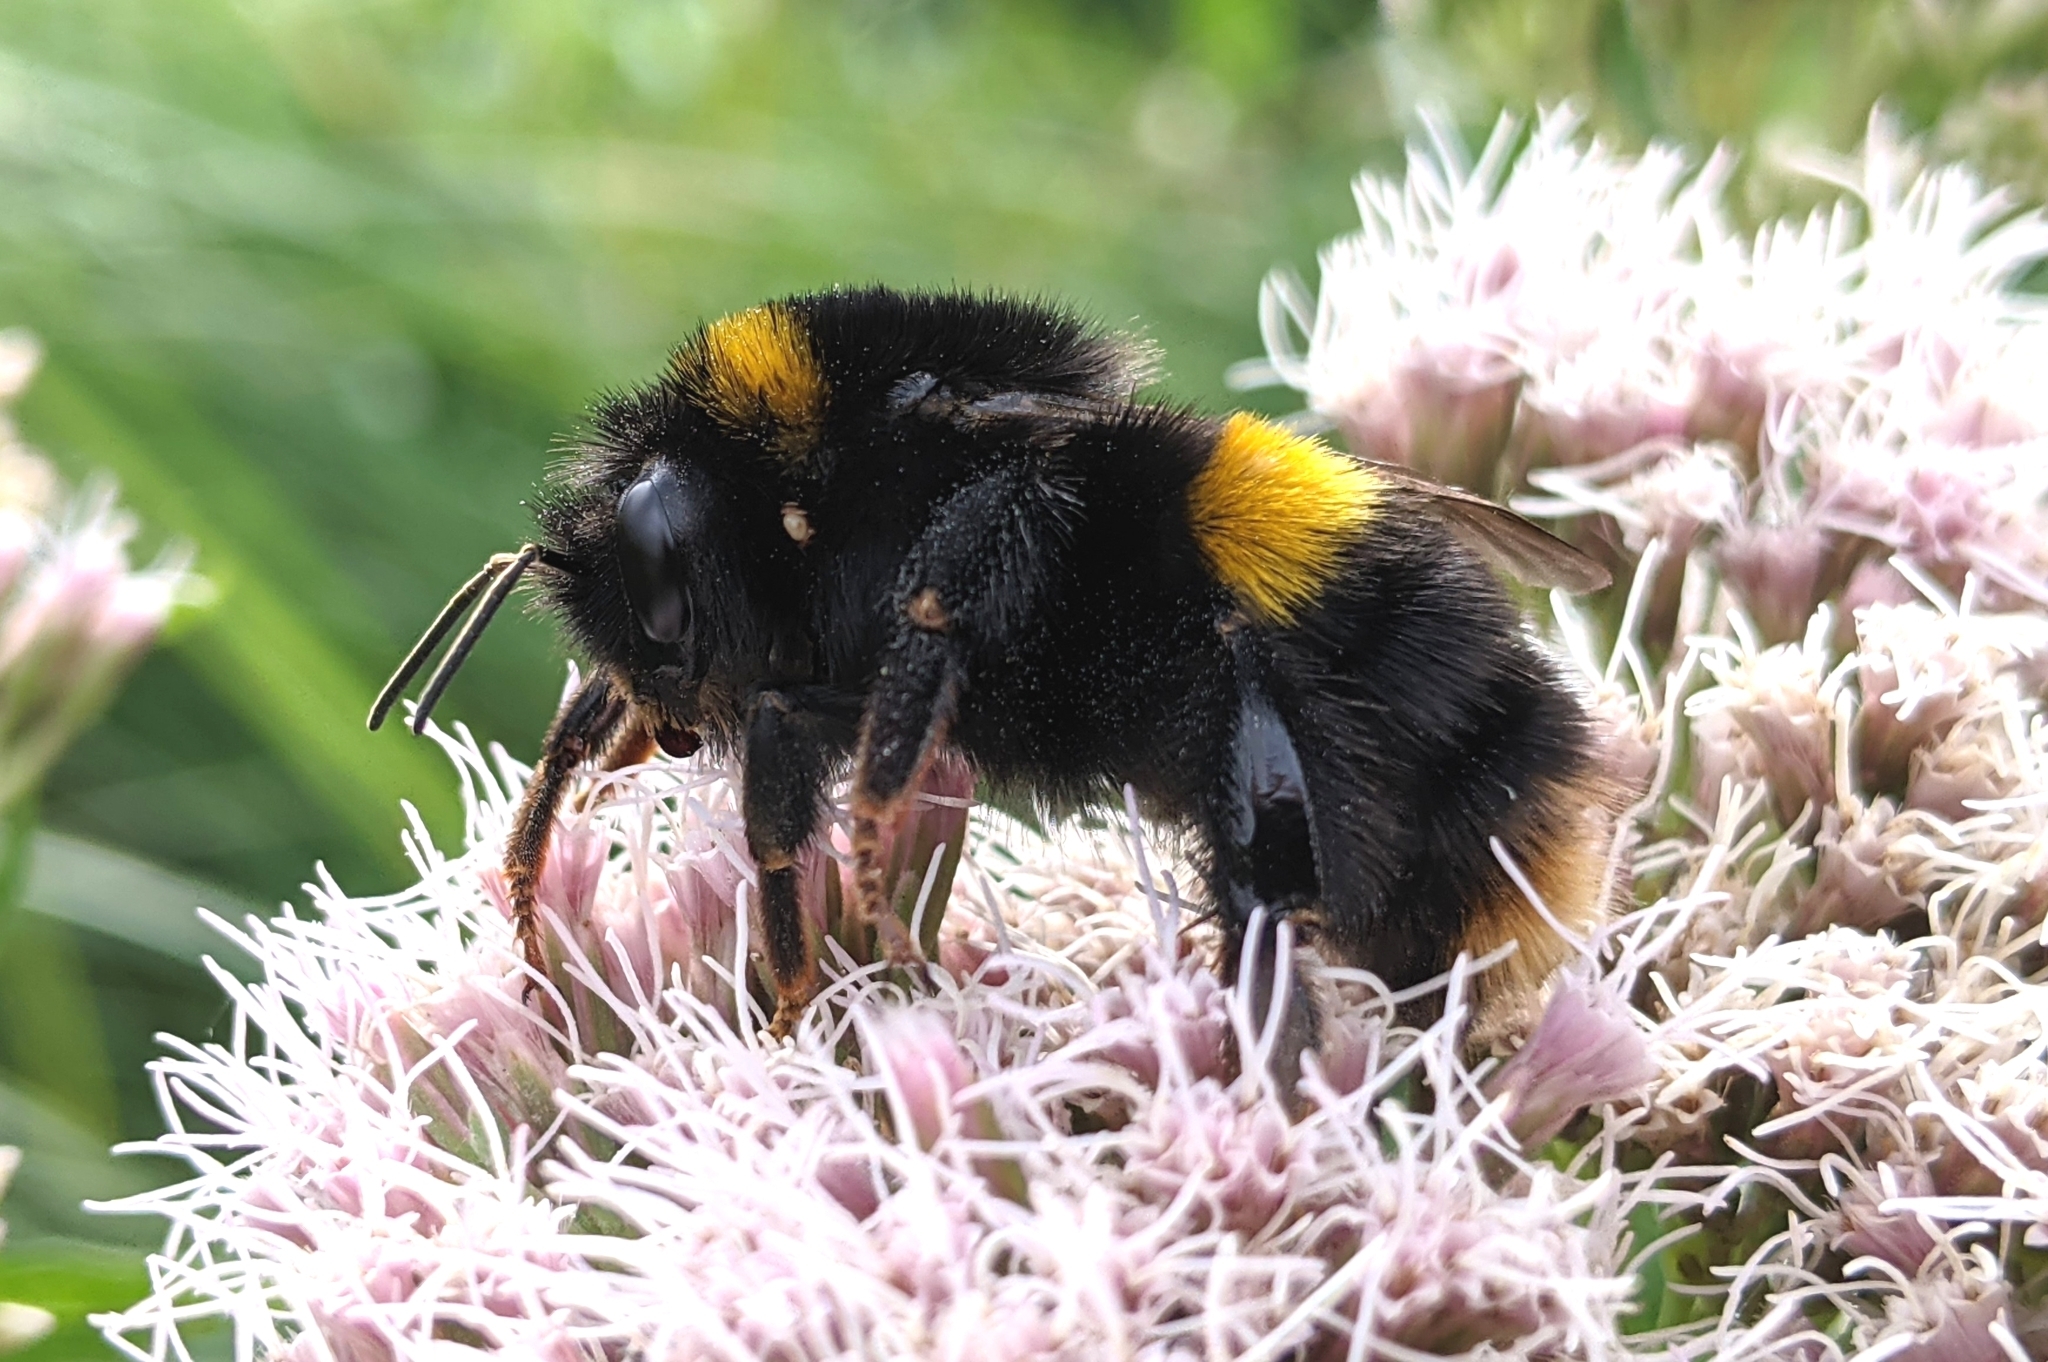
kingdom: Animalia
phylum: Arthropoda
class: Insecta
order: Hymenoptera
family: Apidae
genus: Bombus
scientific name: Bombus terrestris
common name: Buff-tailed bumblebee
